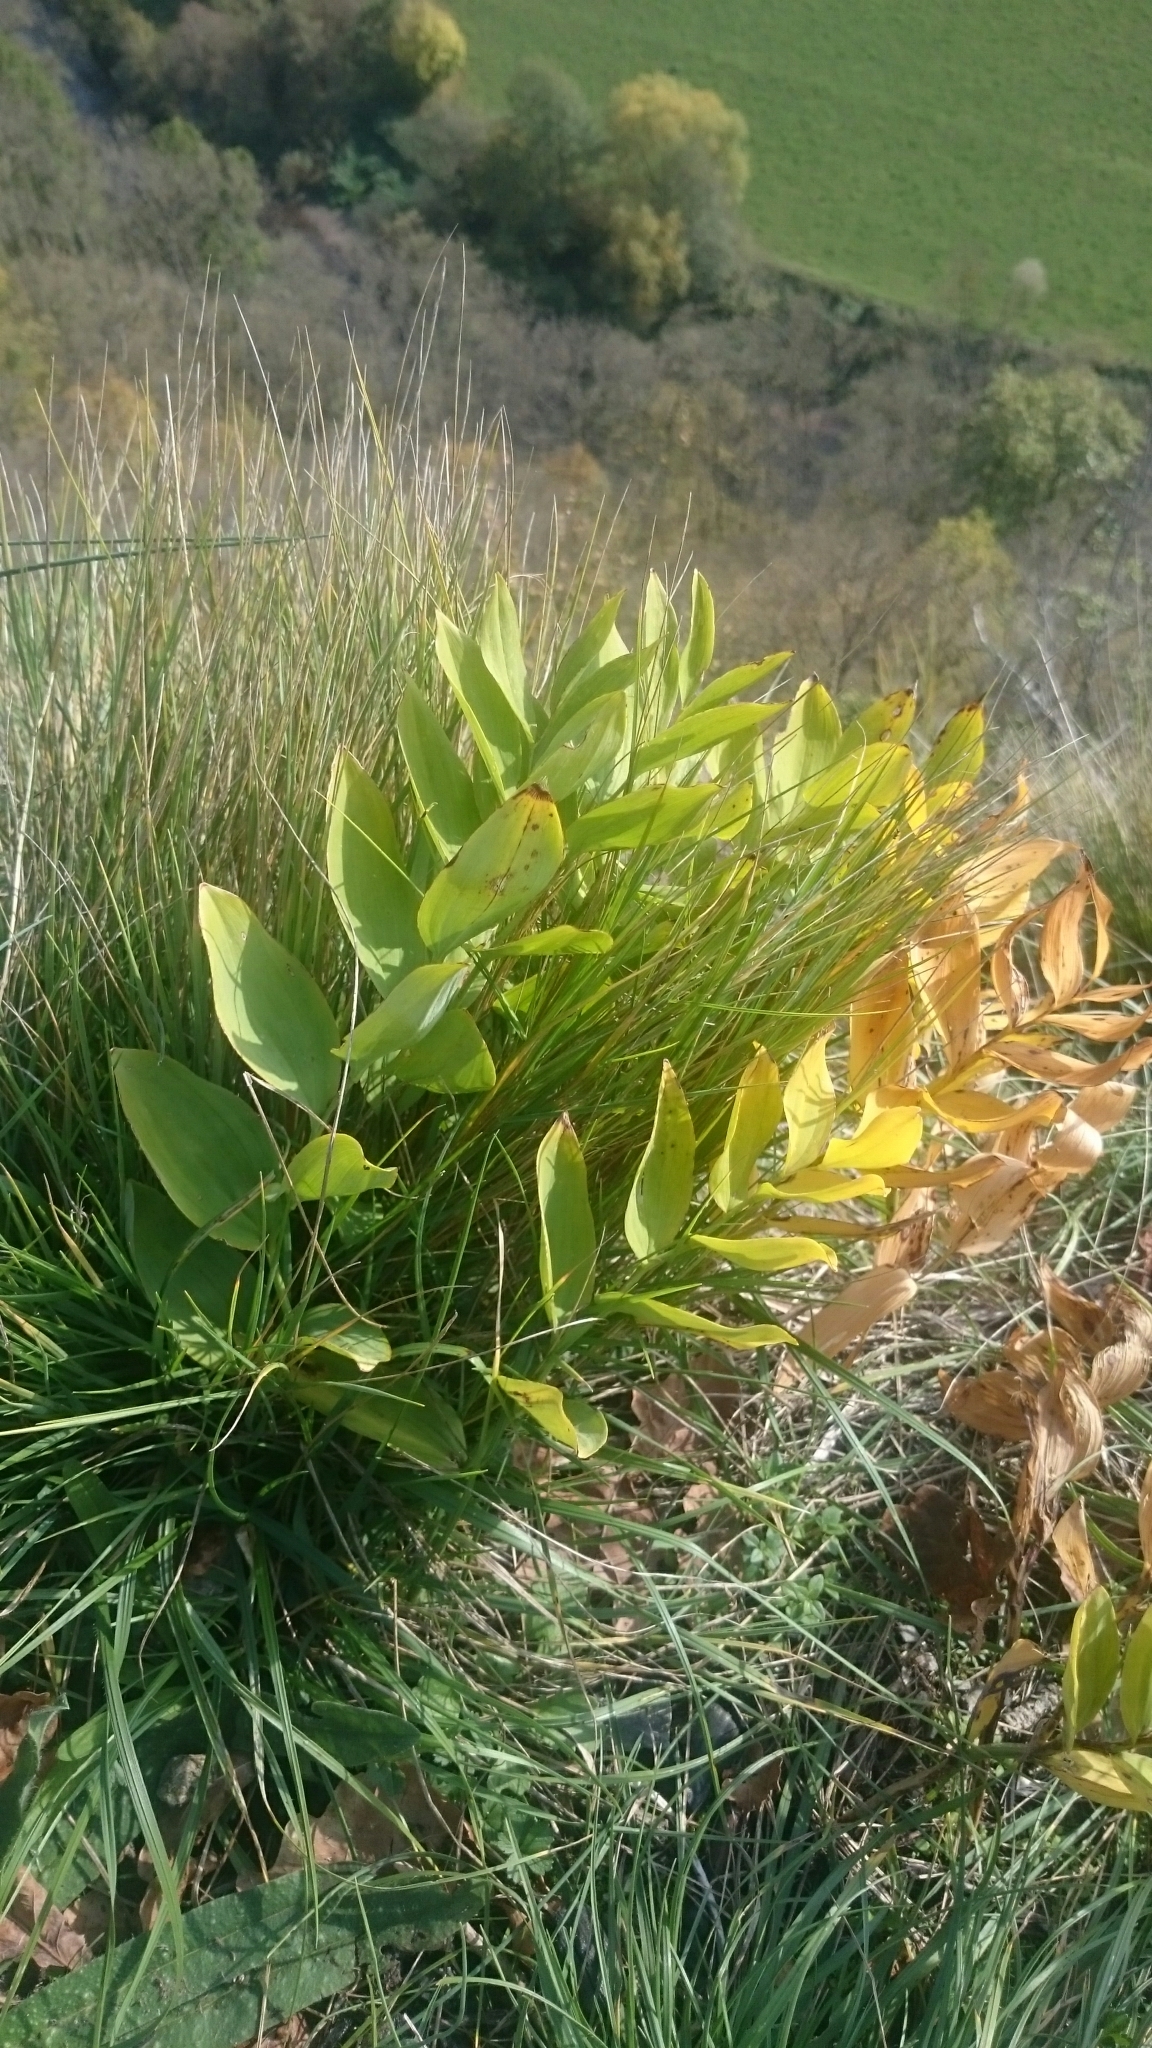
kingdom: Plantae
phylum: Tracheophyta
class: Liliopsida
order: Asparagales
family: Asparagaceae
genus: Polygonatum
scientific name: Polygonatum
